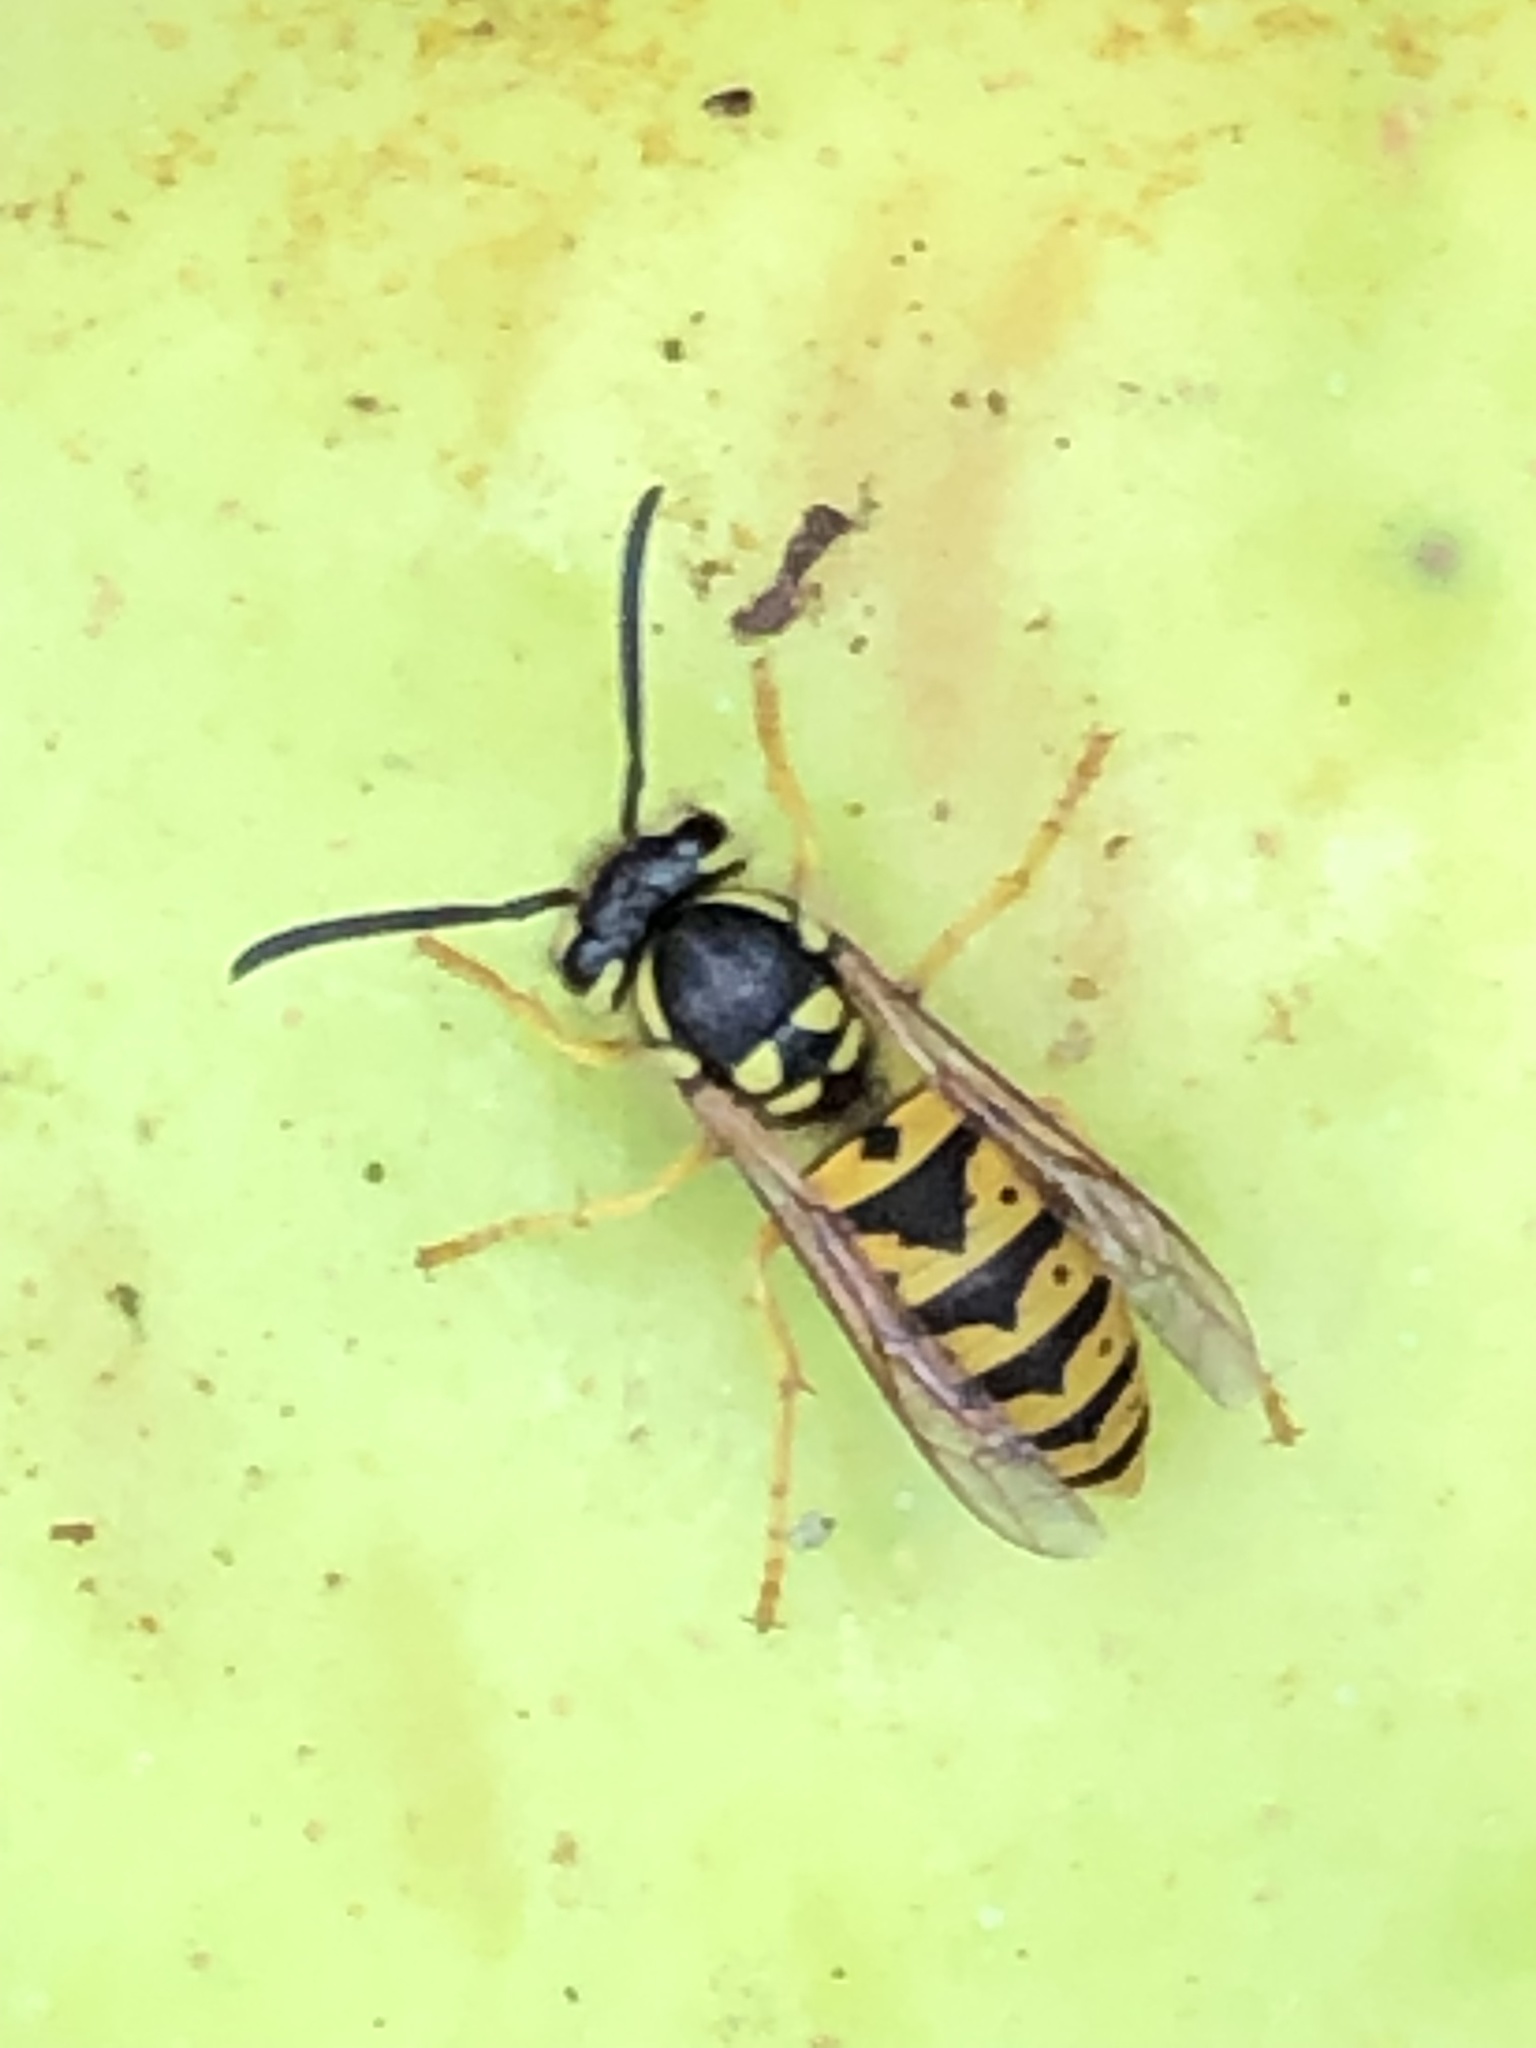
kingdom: Animalia
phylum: Arthropoda
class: Insecta
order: Hymenoptera
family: Vespidae
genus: Vespula
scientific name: Vespula germanica
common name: German wasp
